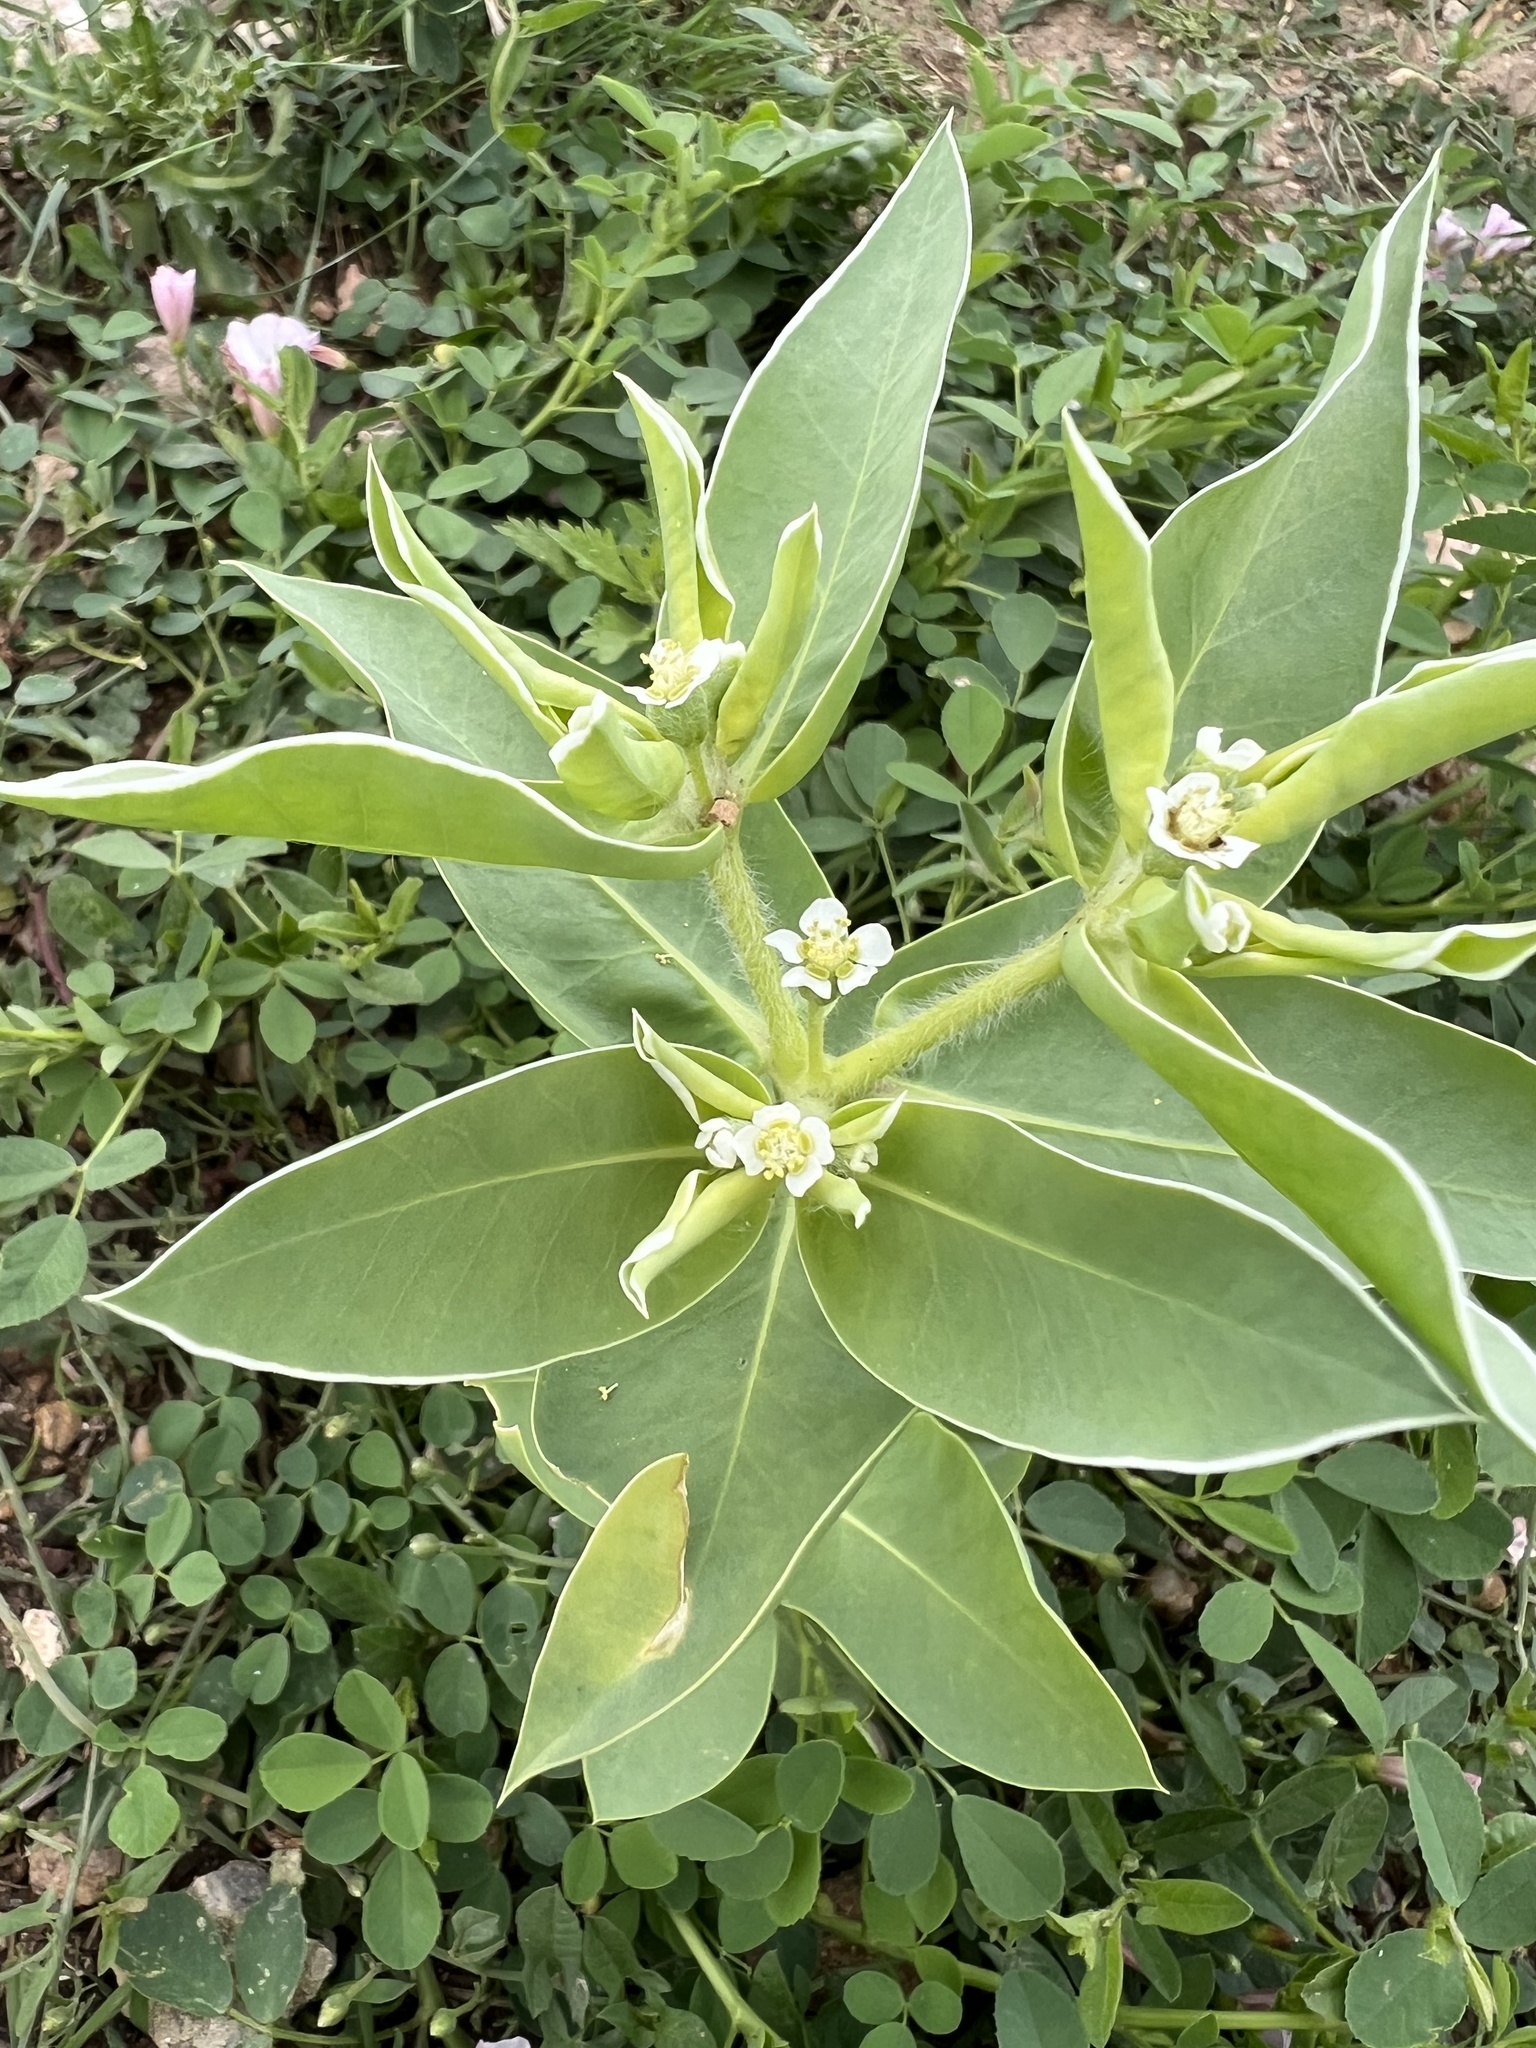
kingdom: Plantae
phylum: Tracheophyta
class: Magnoliopsida
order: Malpighiales
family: Euphorbiaceae
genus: Euphorbia
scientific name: Euphorbia marginata
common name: Ghostweed
